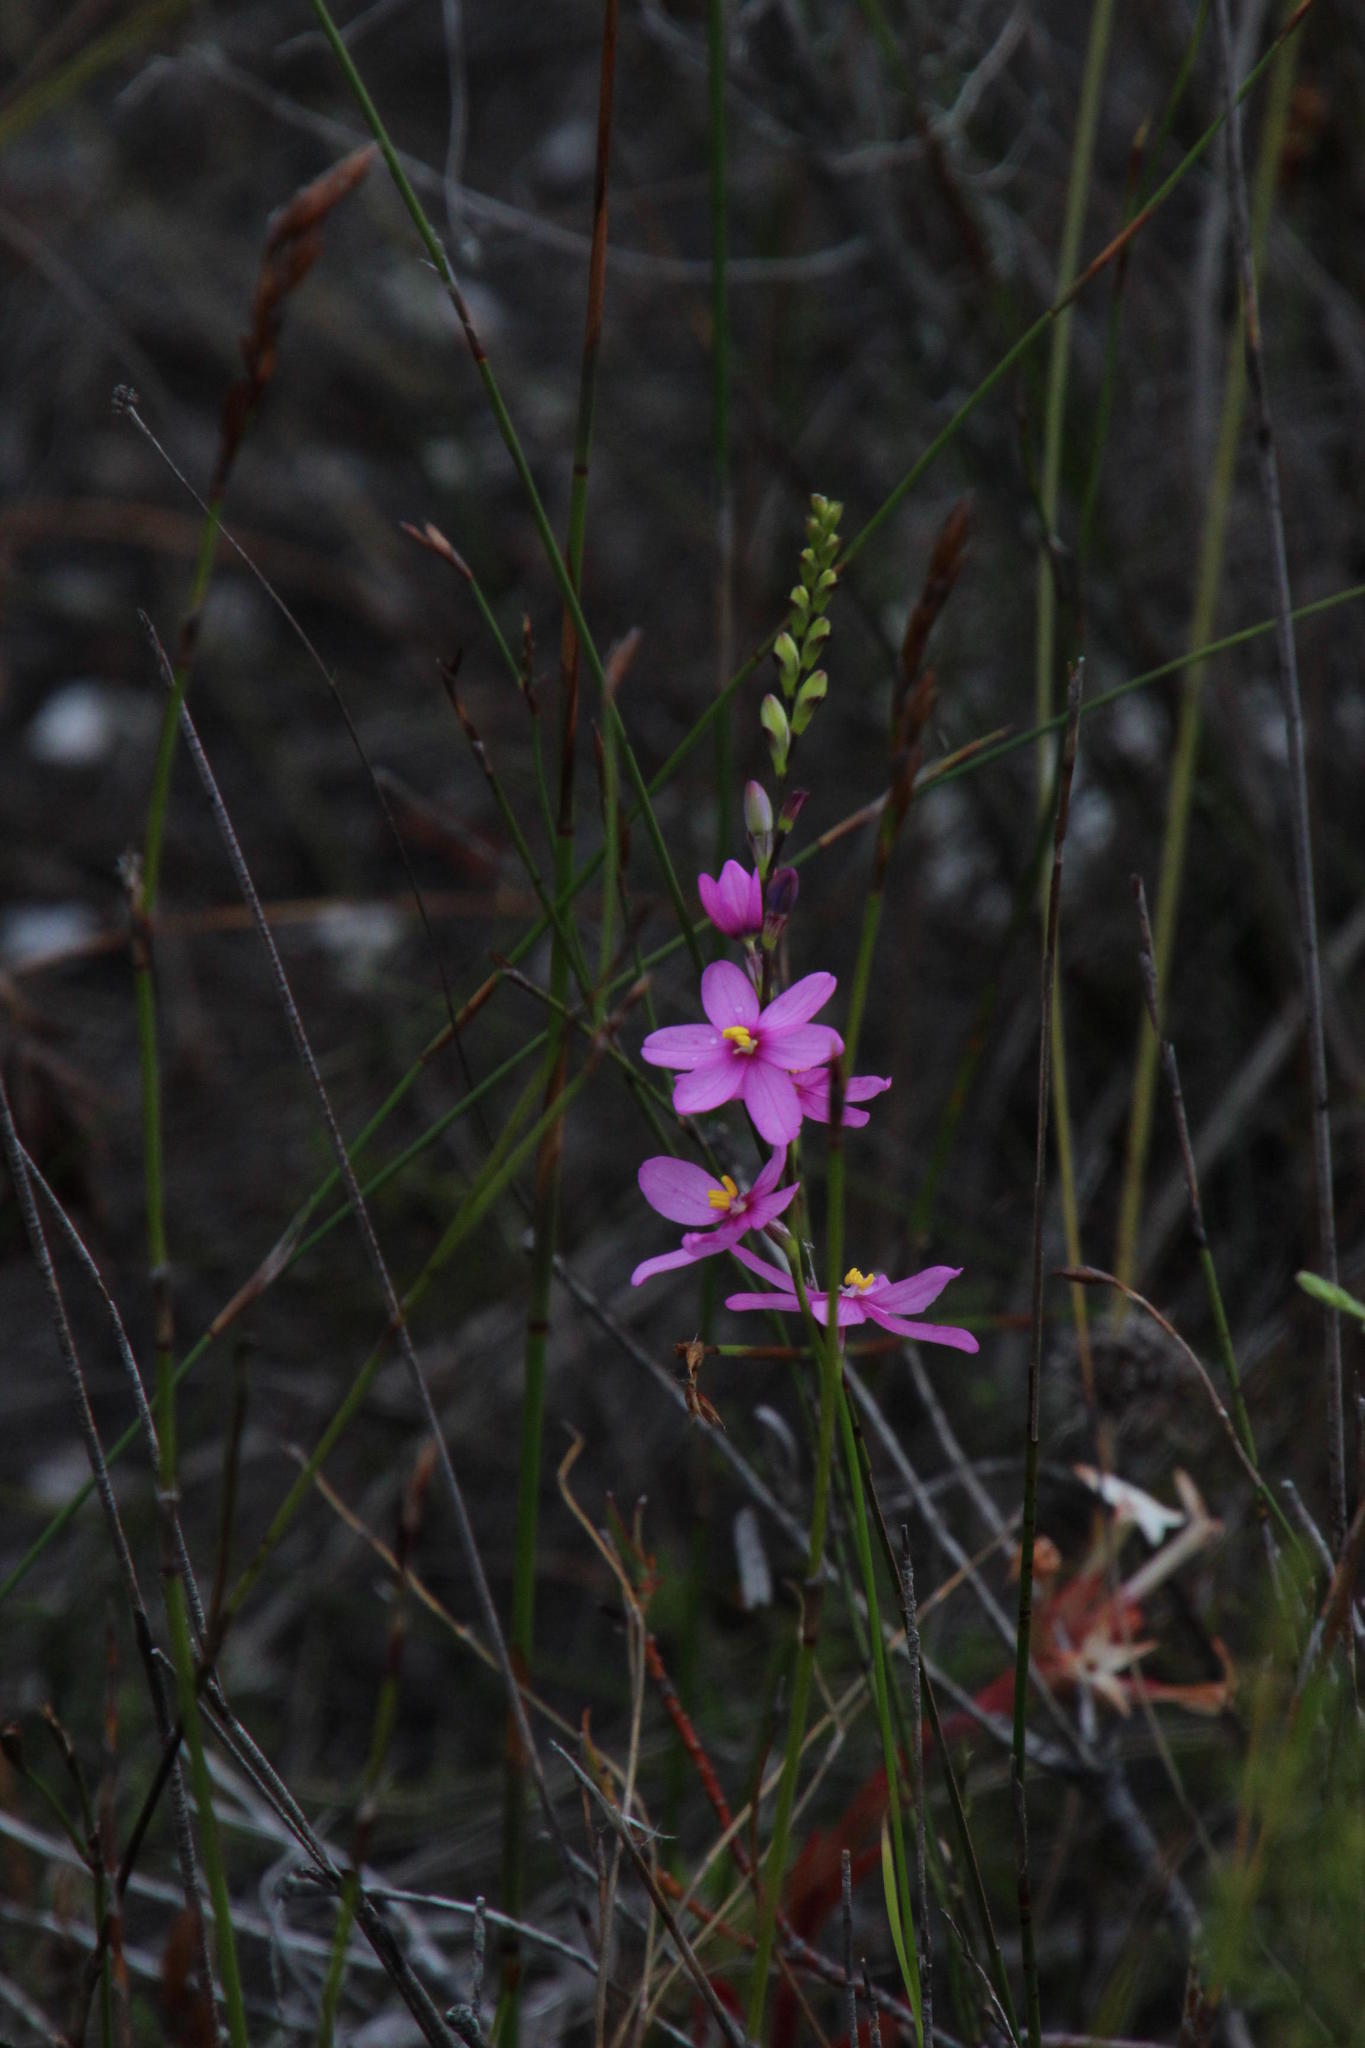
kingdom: Plantae
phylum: Tracheophyta
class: Liliopsida
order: Asparagales
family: Iridaceae
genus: Ixia
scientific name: Ixia stricta
